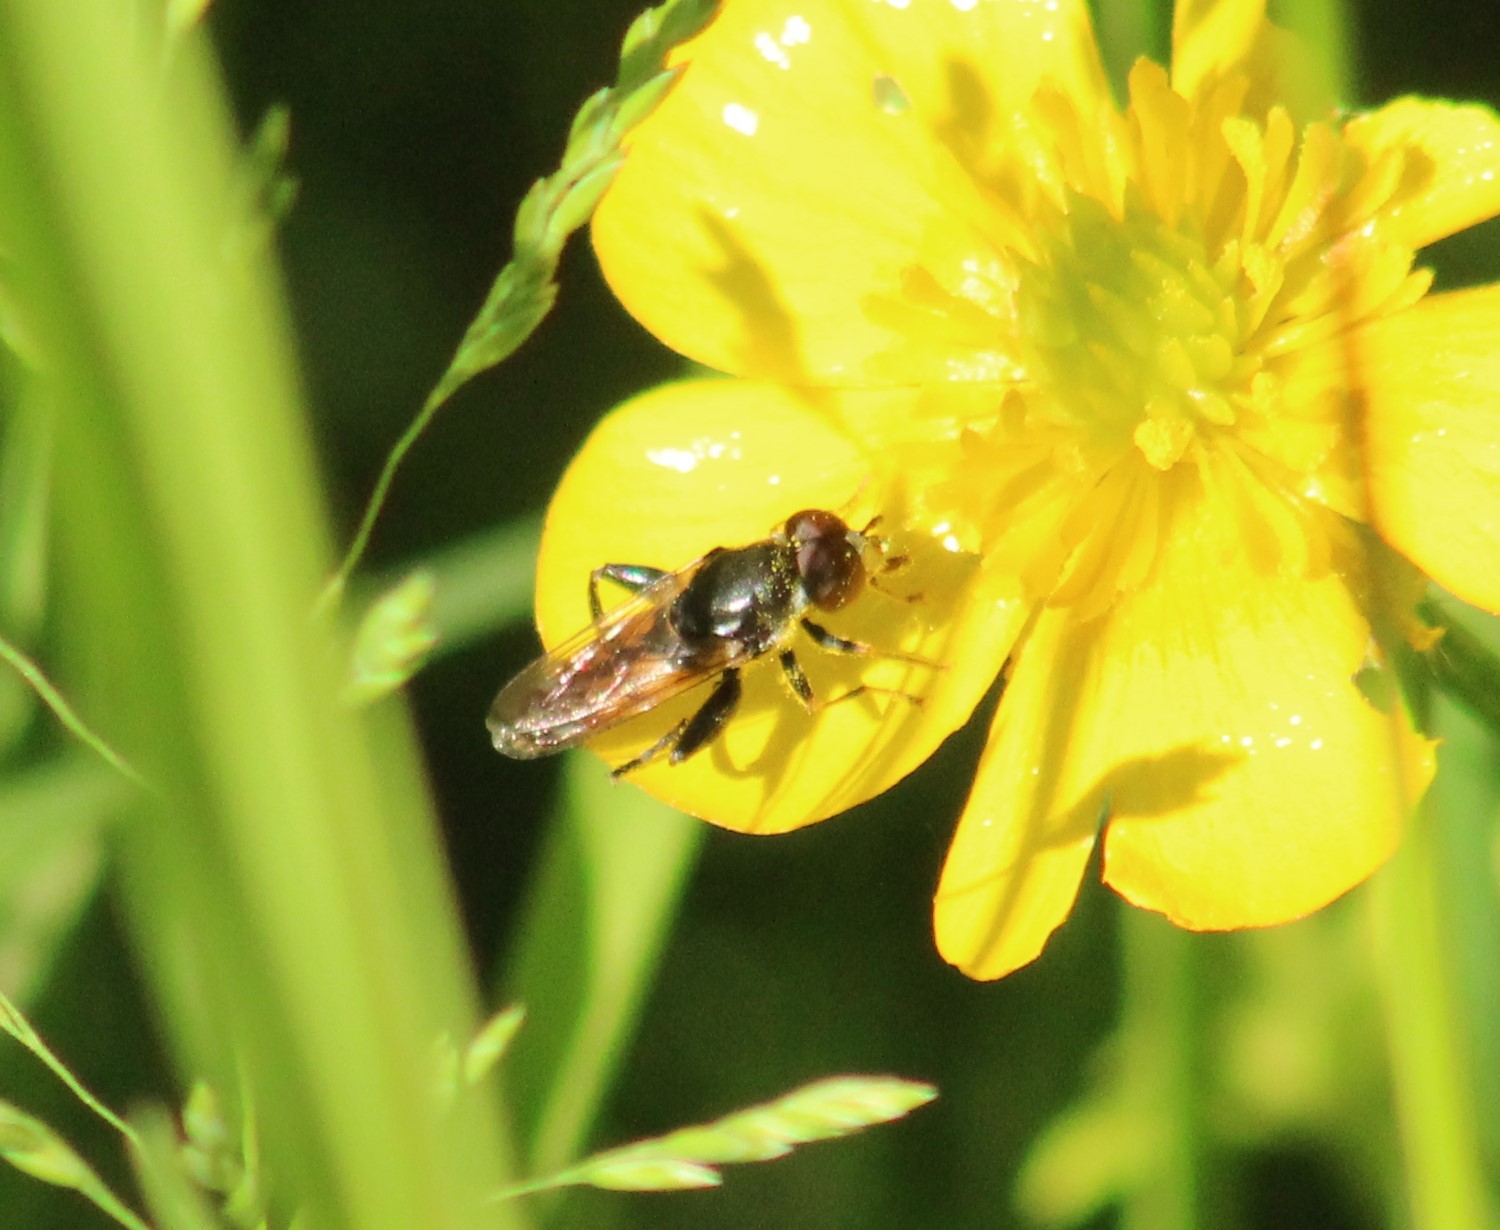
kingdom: Animalia
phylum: Arthropoda
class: Insecta
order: Diptera
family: Syrphidae
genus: Tropidia
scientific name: Tropidia scita
